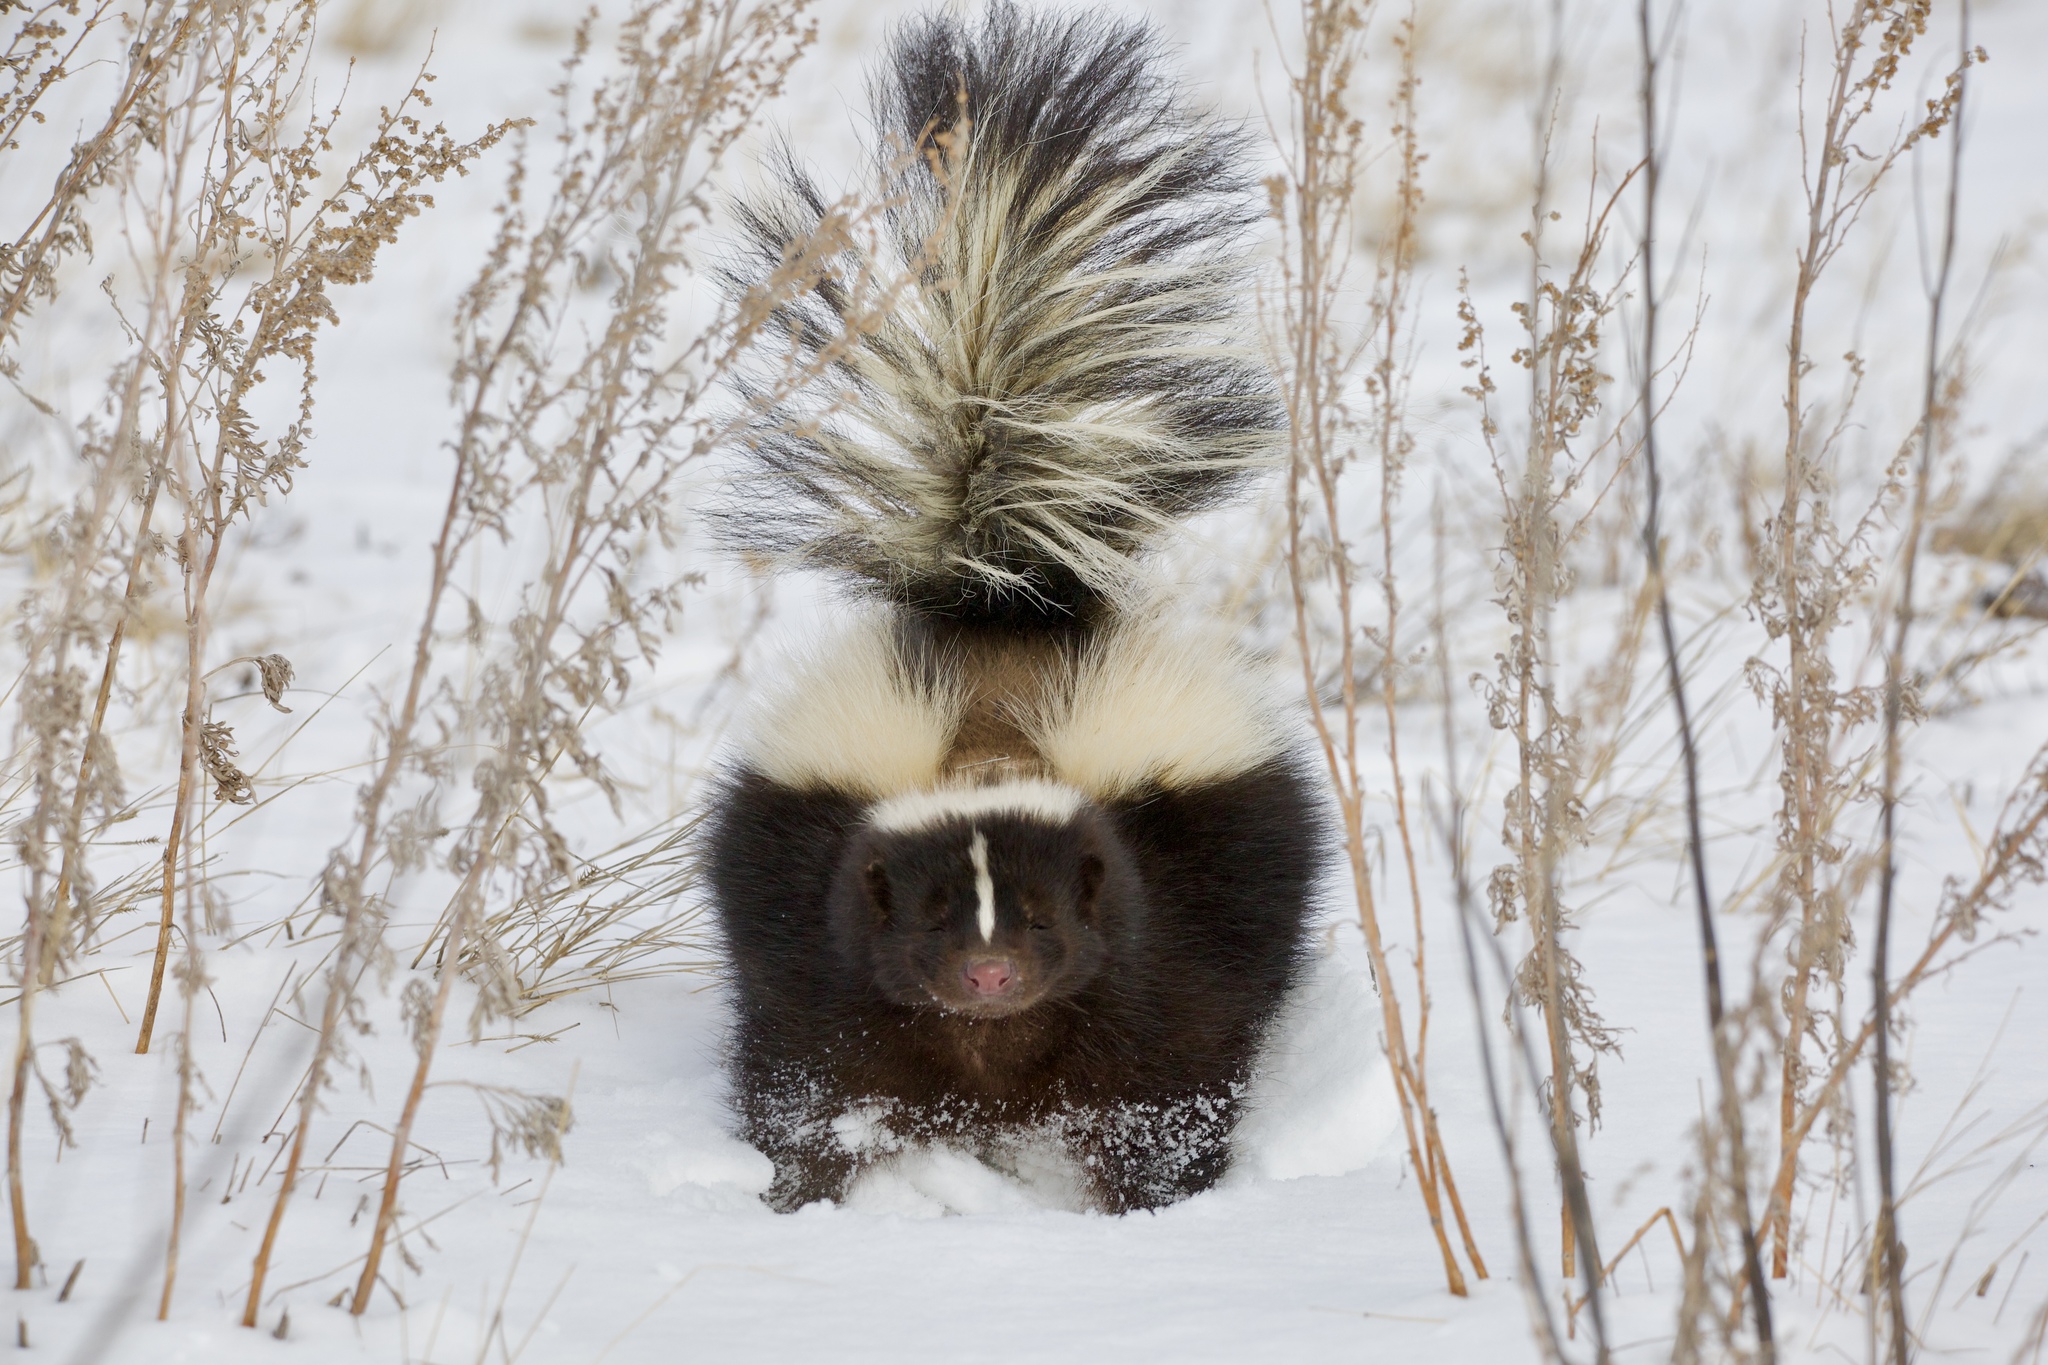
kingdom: Animalia
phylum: Chordata
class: Mammalia
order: Carnivora
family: Mephitidae
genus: Mephitis
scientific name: Mephitis mephitis
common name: Striped skunk
